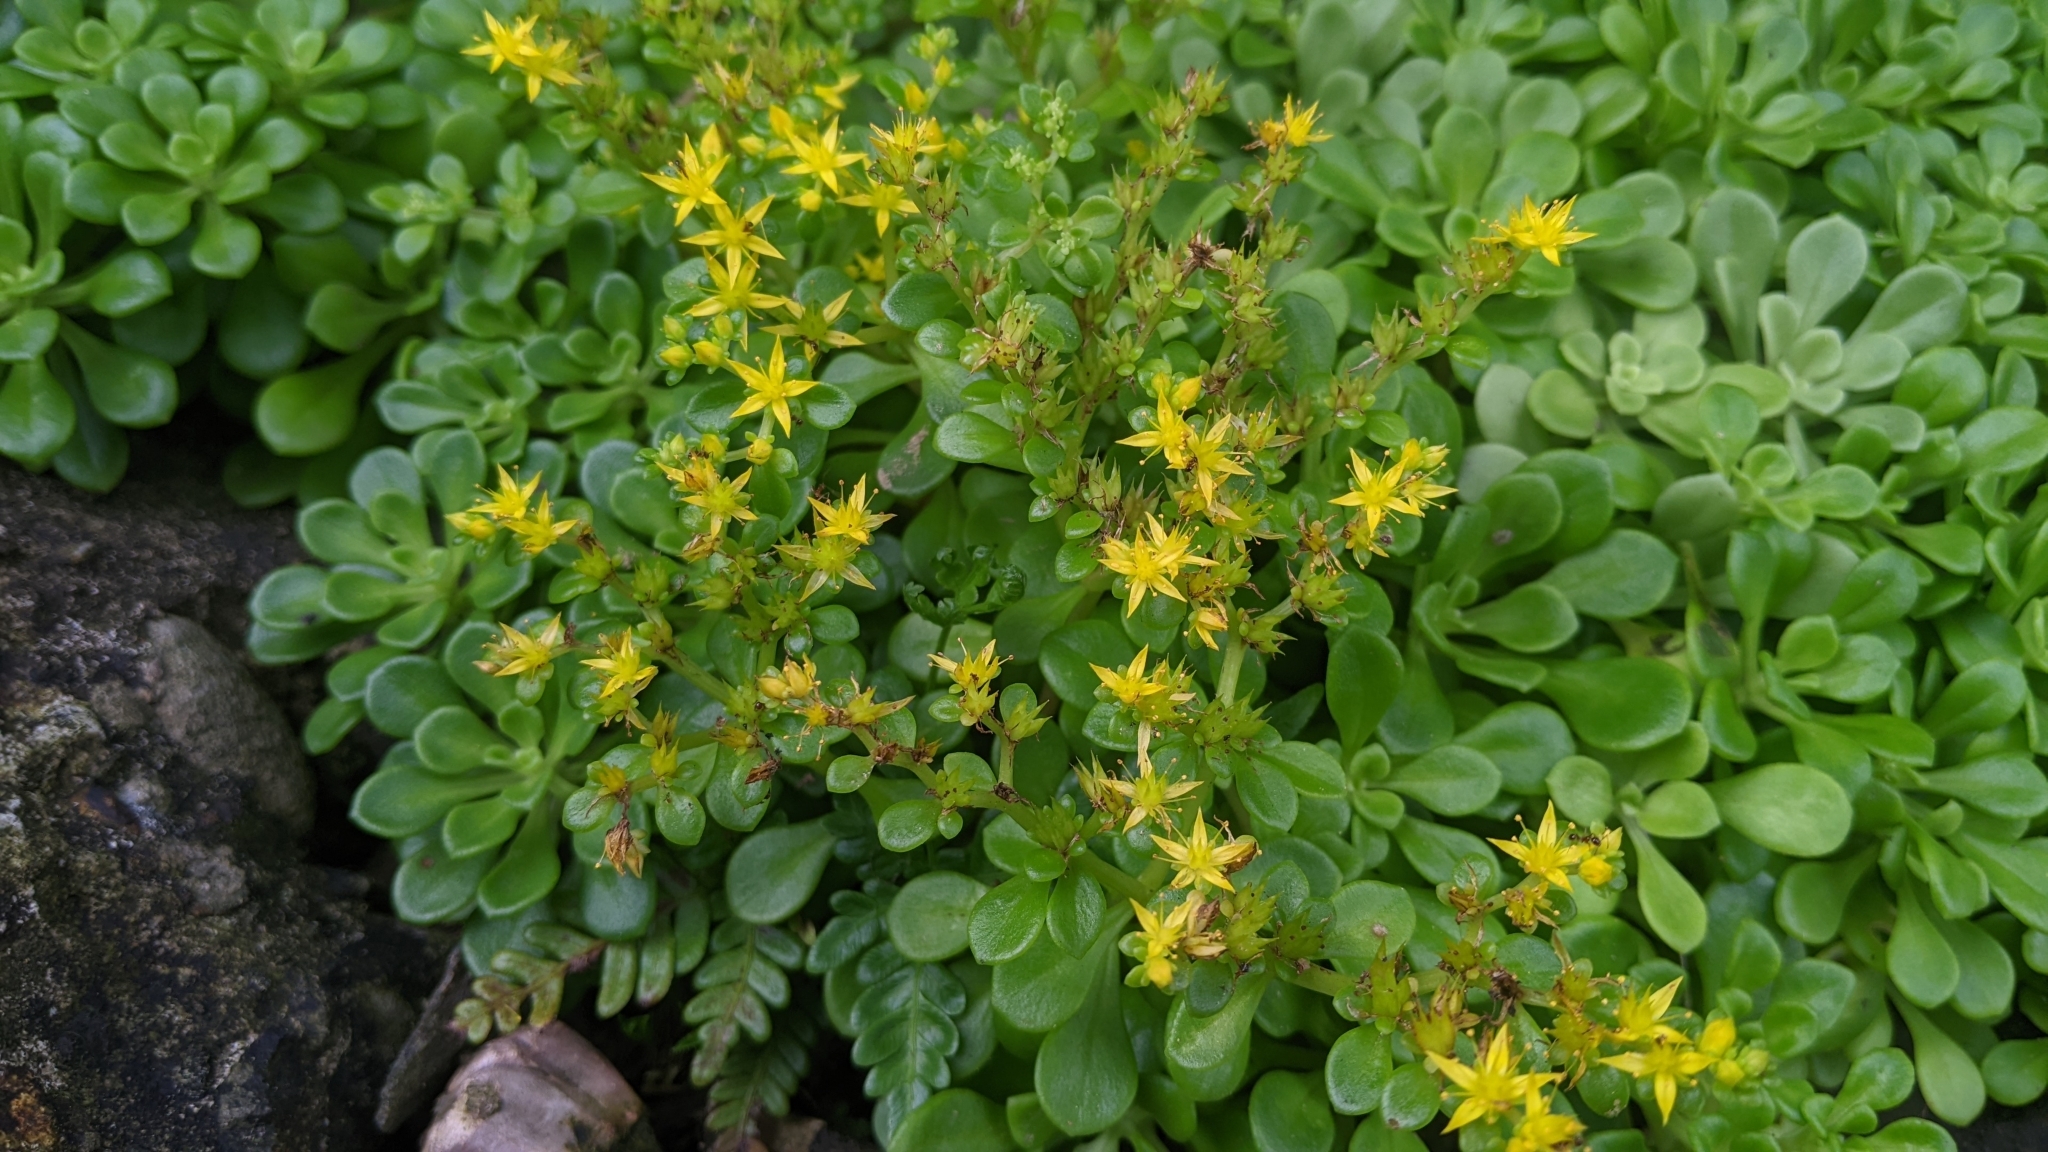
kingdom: Plantae
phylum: Tracheophyta
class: Magnoliopsida
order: Saxifragales
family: Crassulaceae
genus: Sedum
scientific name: Sedum formosanum
